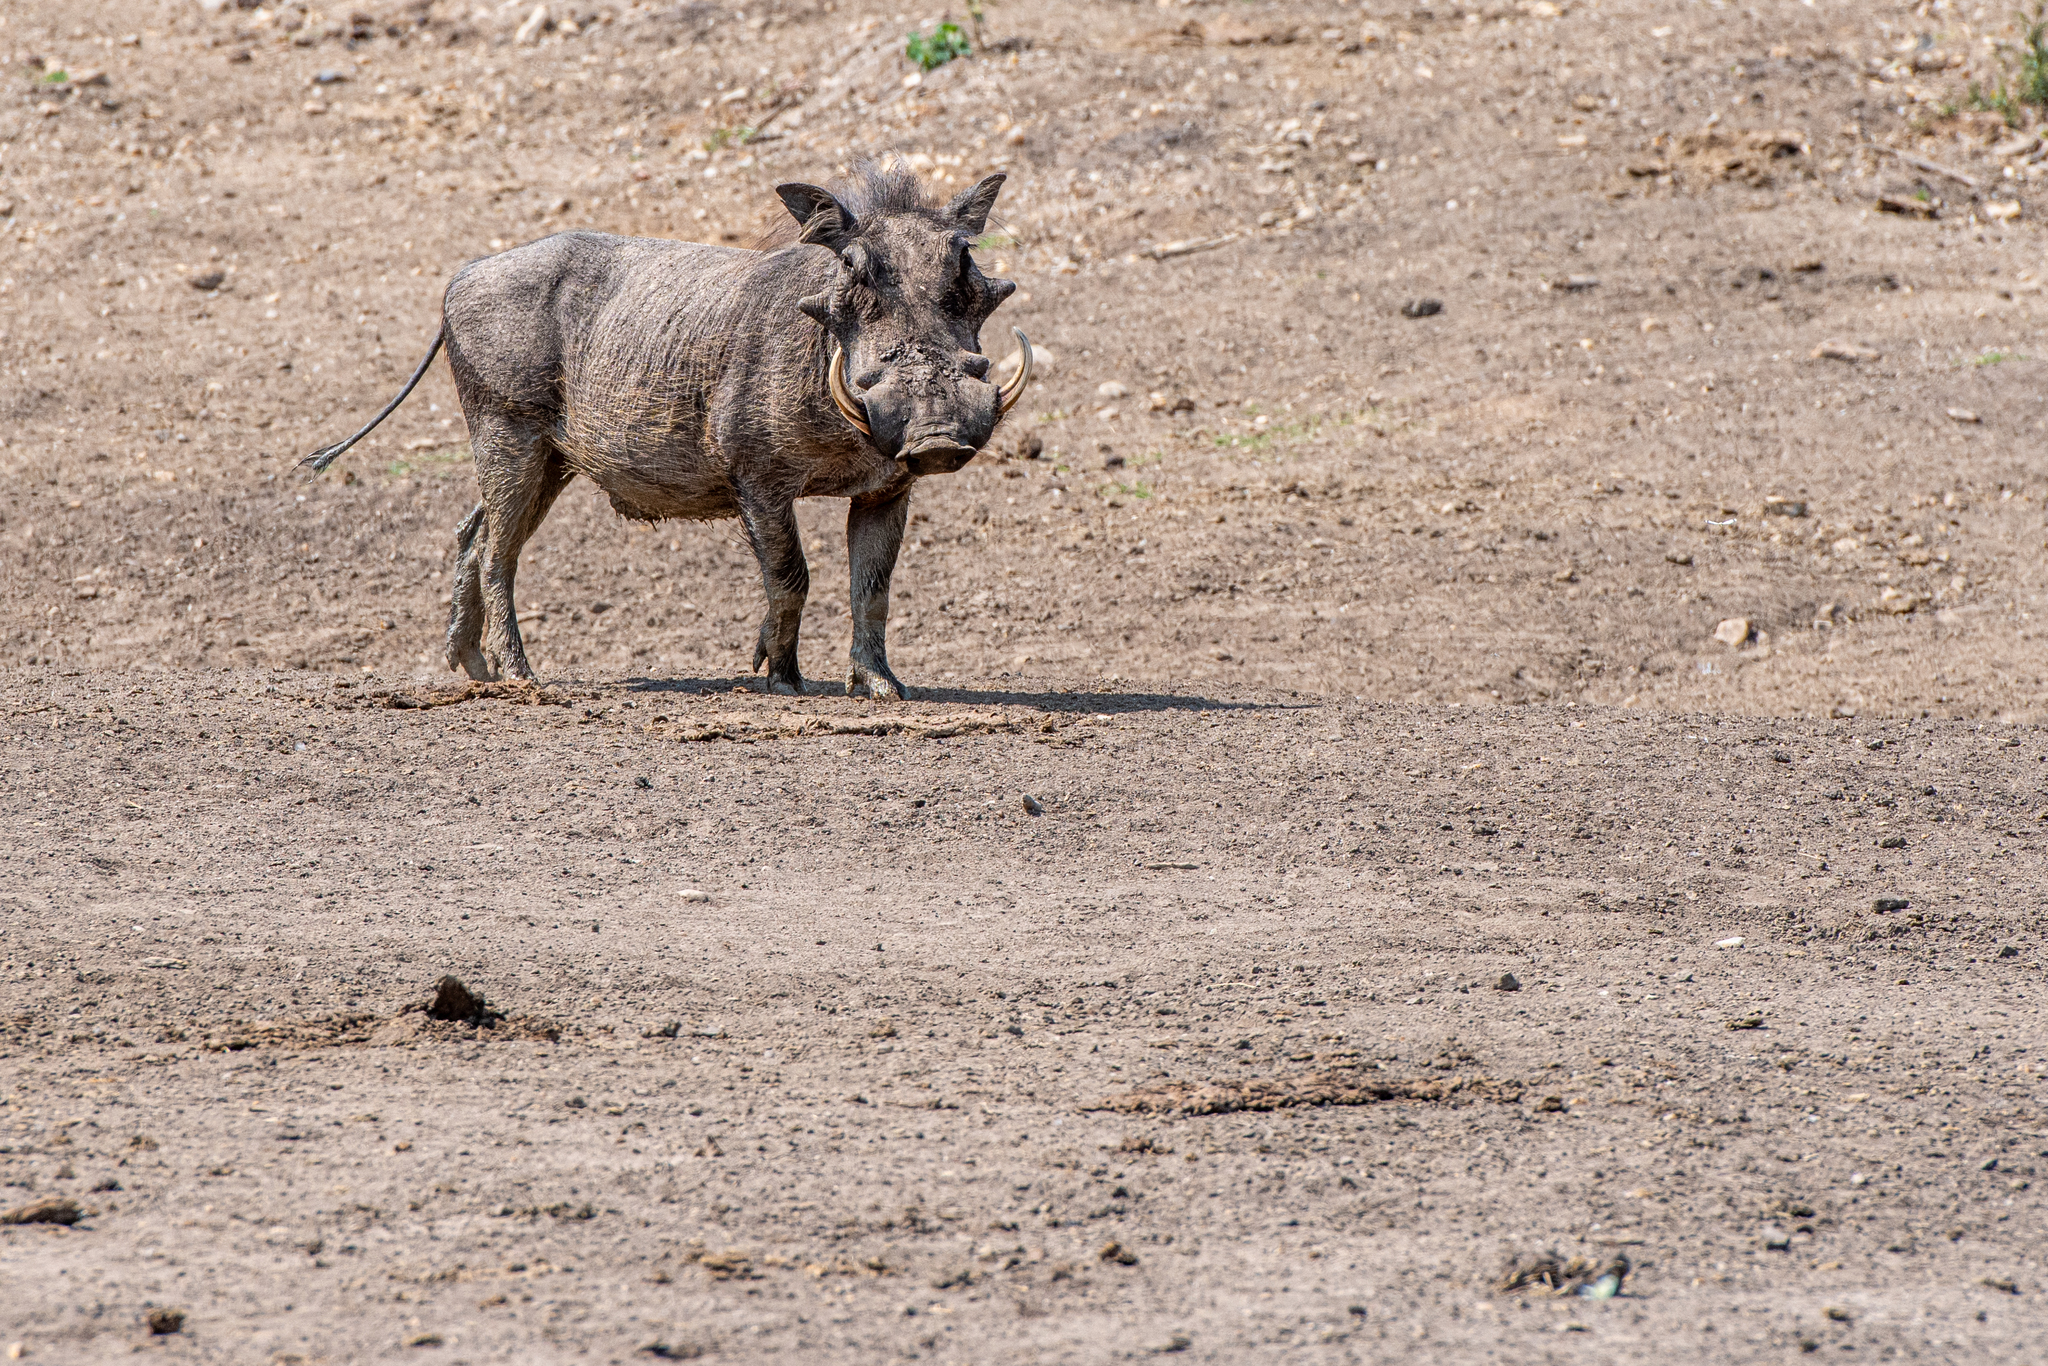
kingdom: Animalia
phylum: Chordata
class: Mammalia
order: Artiodactyla
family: Suidae
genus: Phacochoerus
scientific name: Phacochoerus africanus
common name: Common warthog
